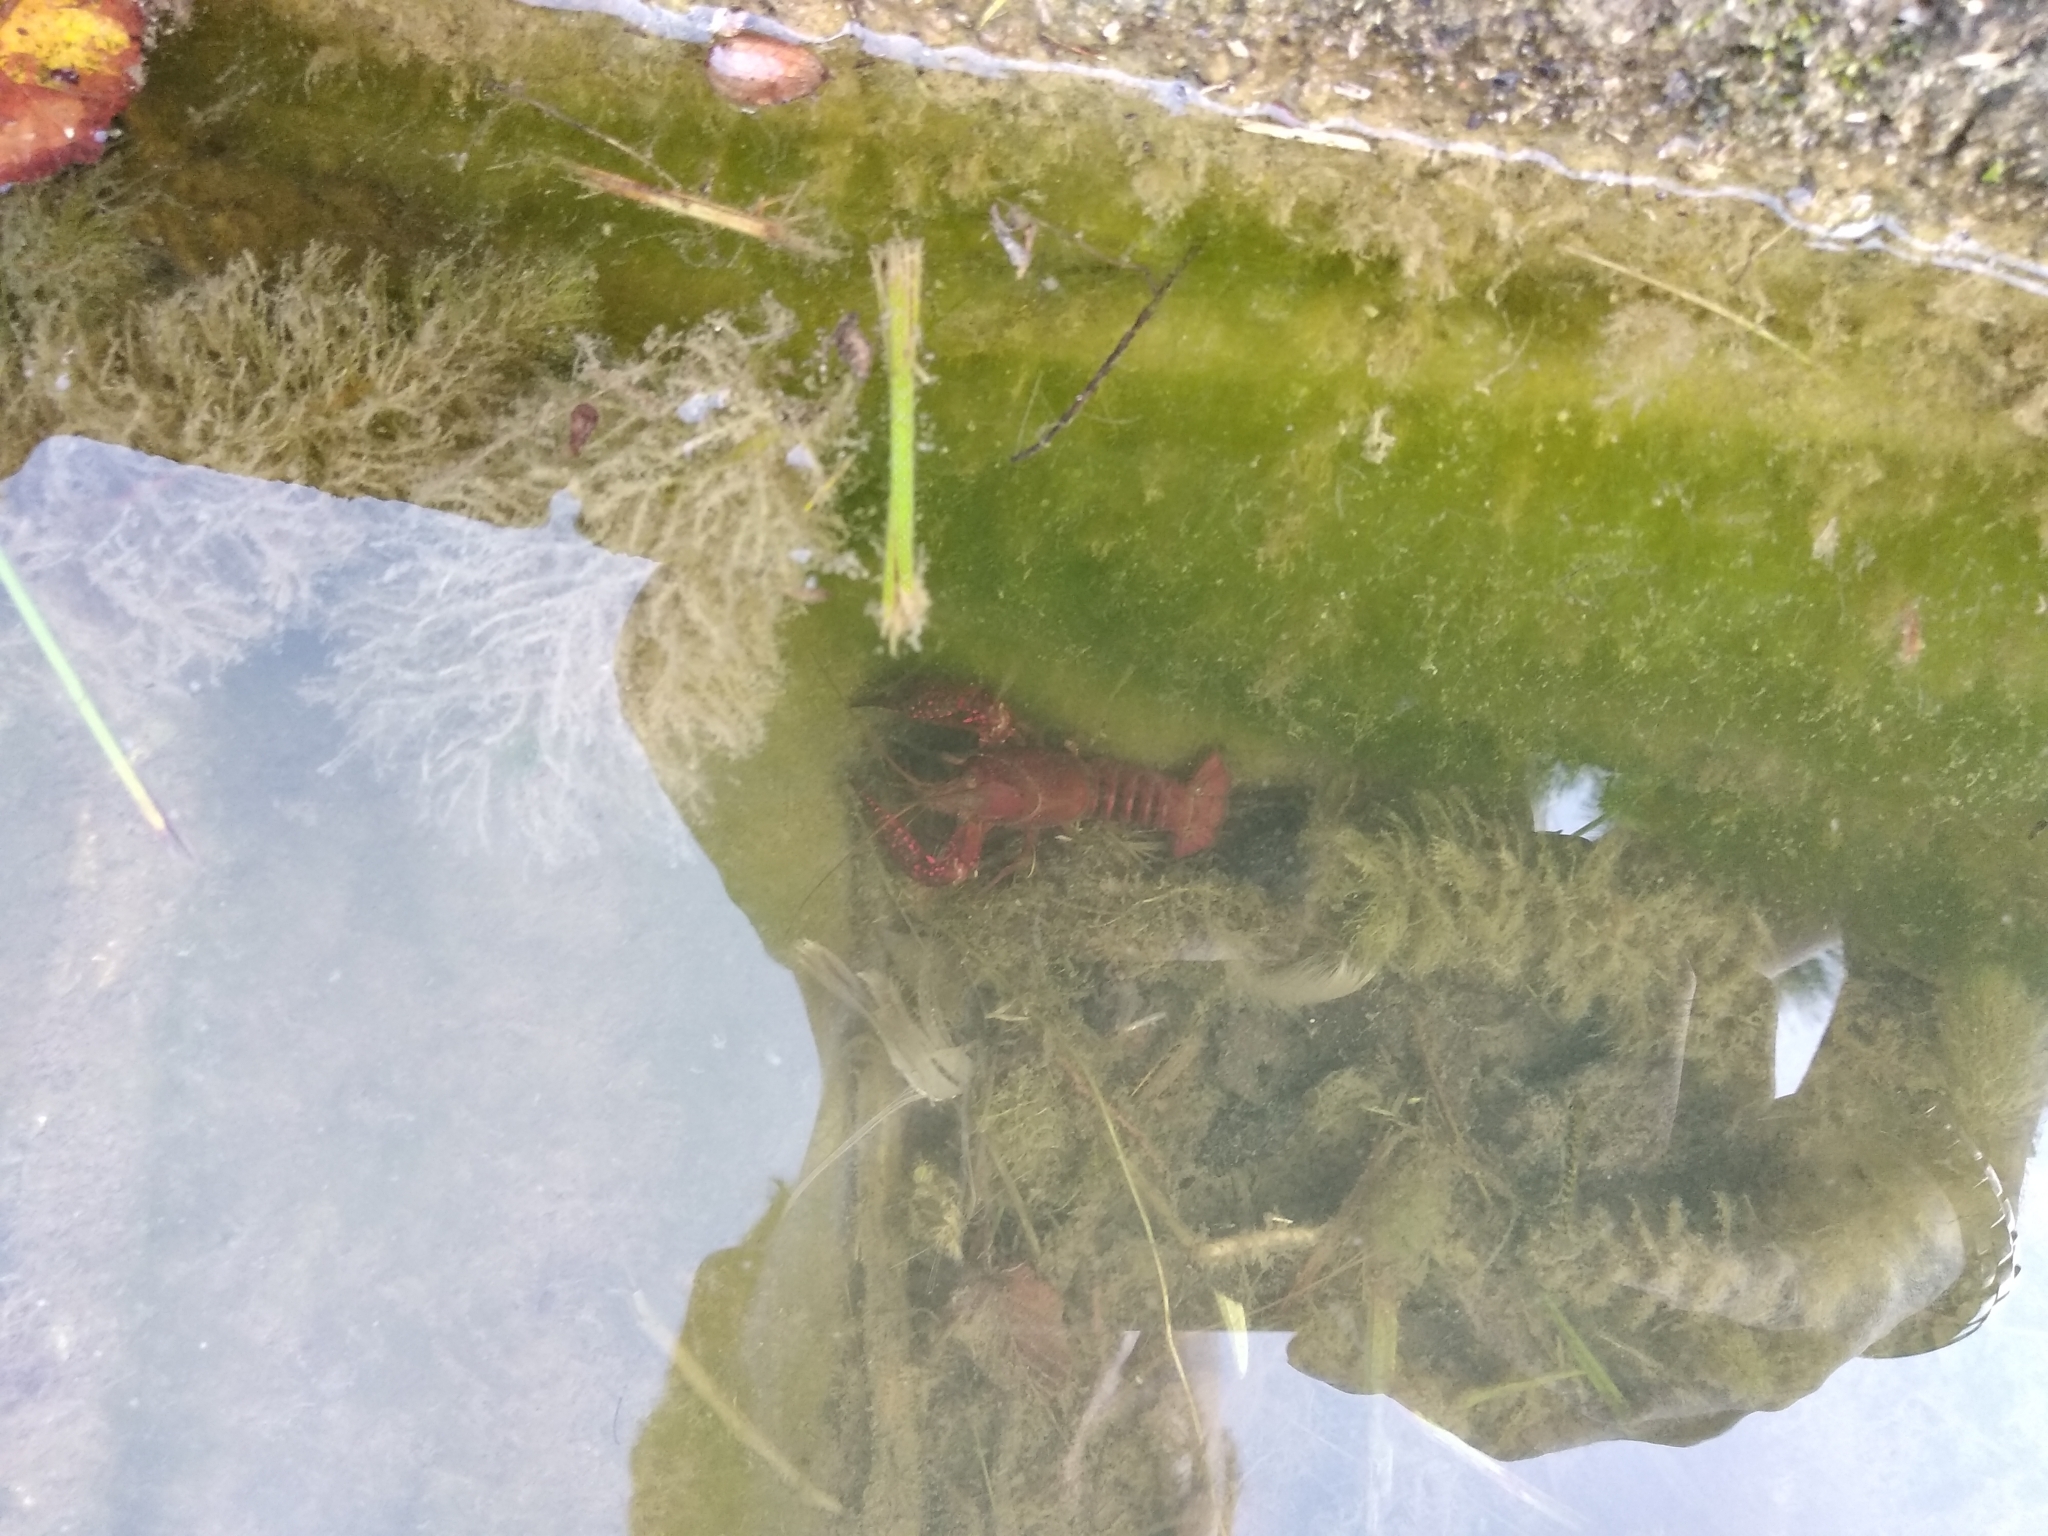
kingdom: Animalia
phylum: Arthropoda
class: Malacostraca
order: Decapoda
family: Cambaridae
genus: Procambarus
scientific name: Procambarus clarkii
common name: Red swamp crayfish
